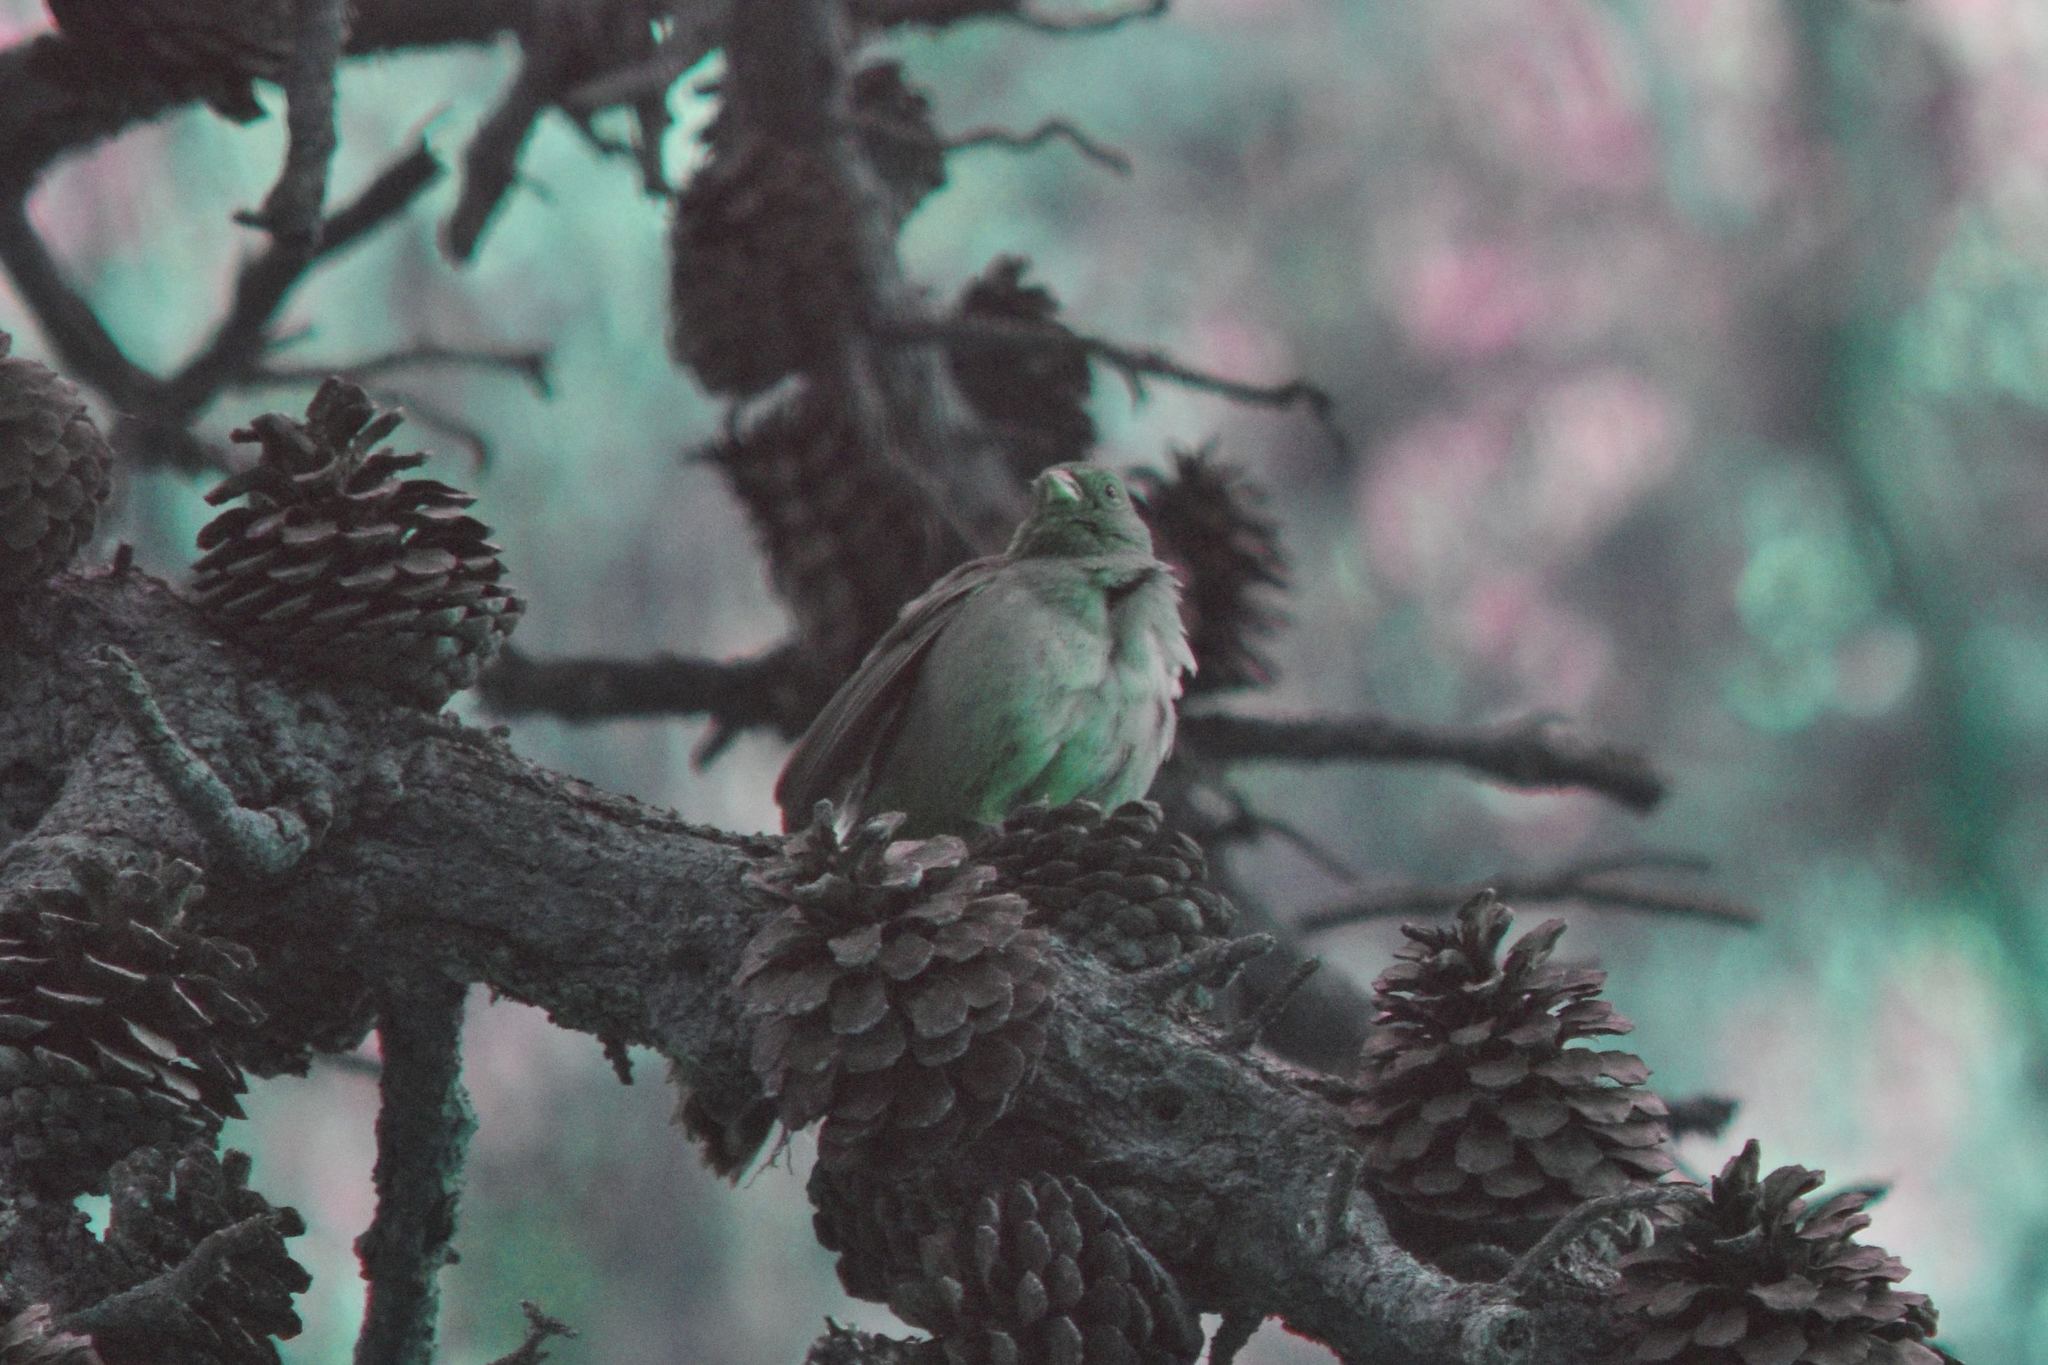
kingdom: Animalia
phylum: Chordata
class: Aves
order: Passeriformes
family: Passerellidae
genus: Melozone
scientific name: Melozone crissalis
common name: California towhee
